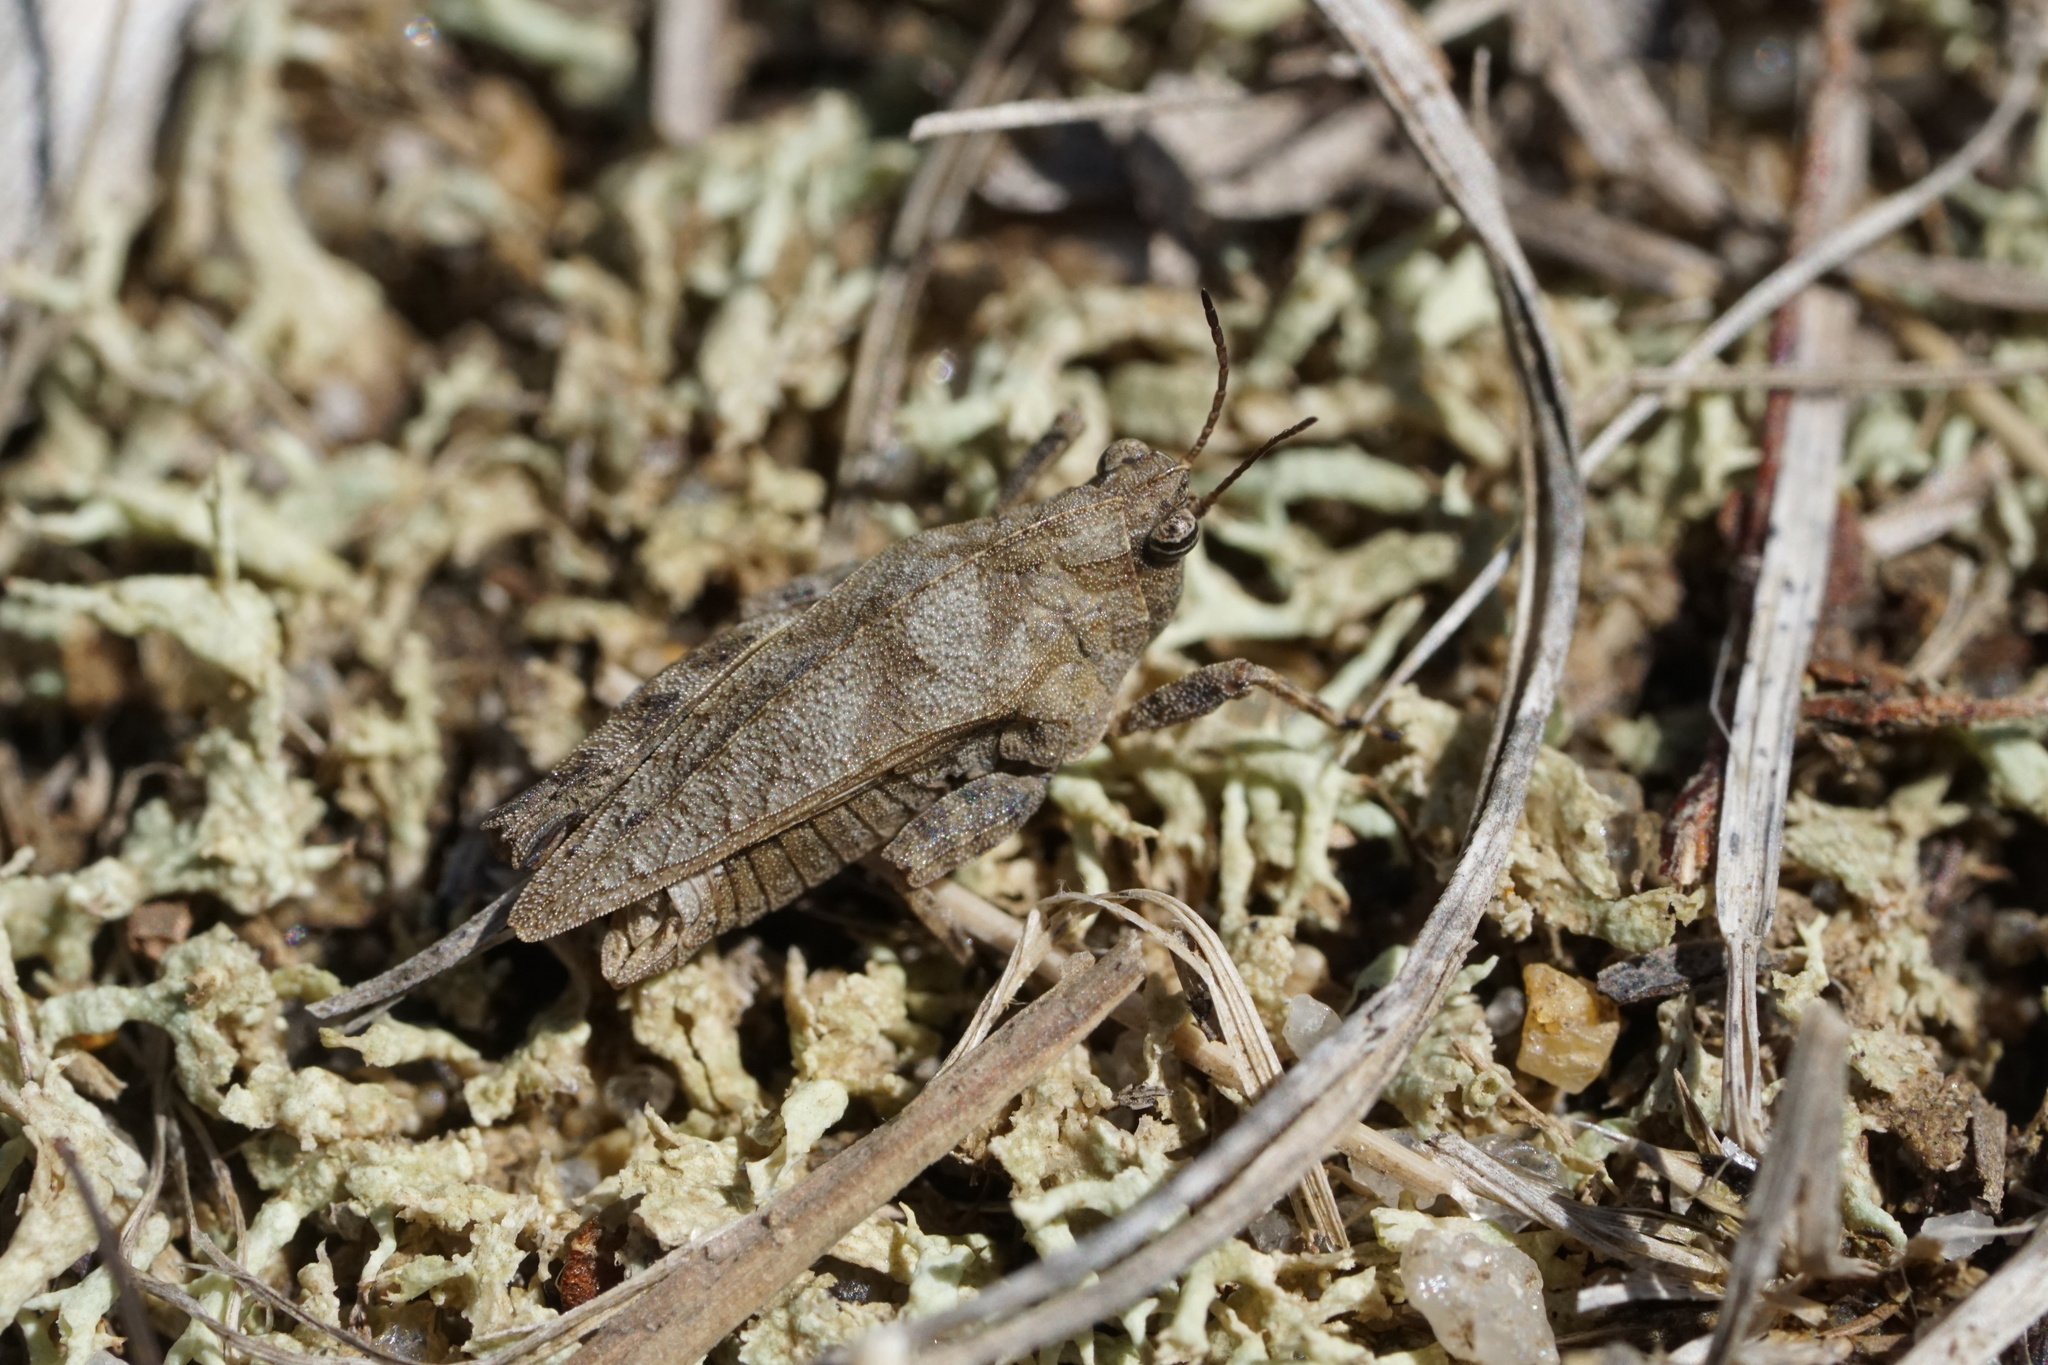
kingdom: Animalia
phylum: Arthropoda
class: Insecta
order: Orthoptera
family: Tetrigidae
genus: Nomotettix
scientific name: Nomotettix cristatus
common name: Crested grouse locust
